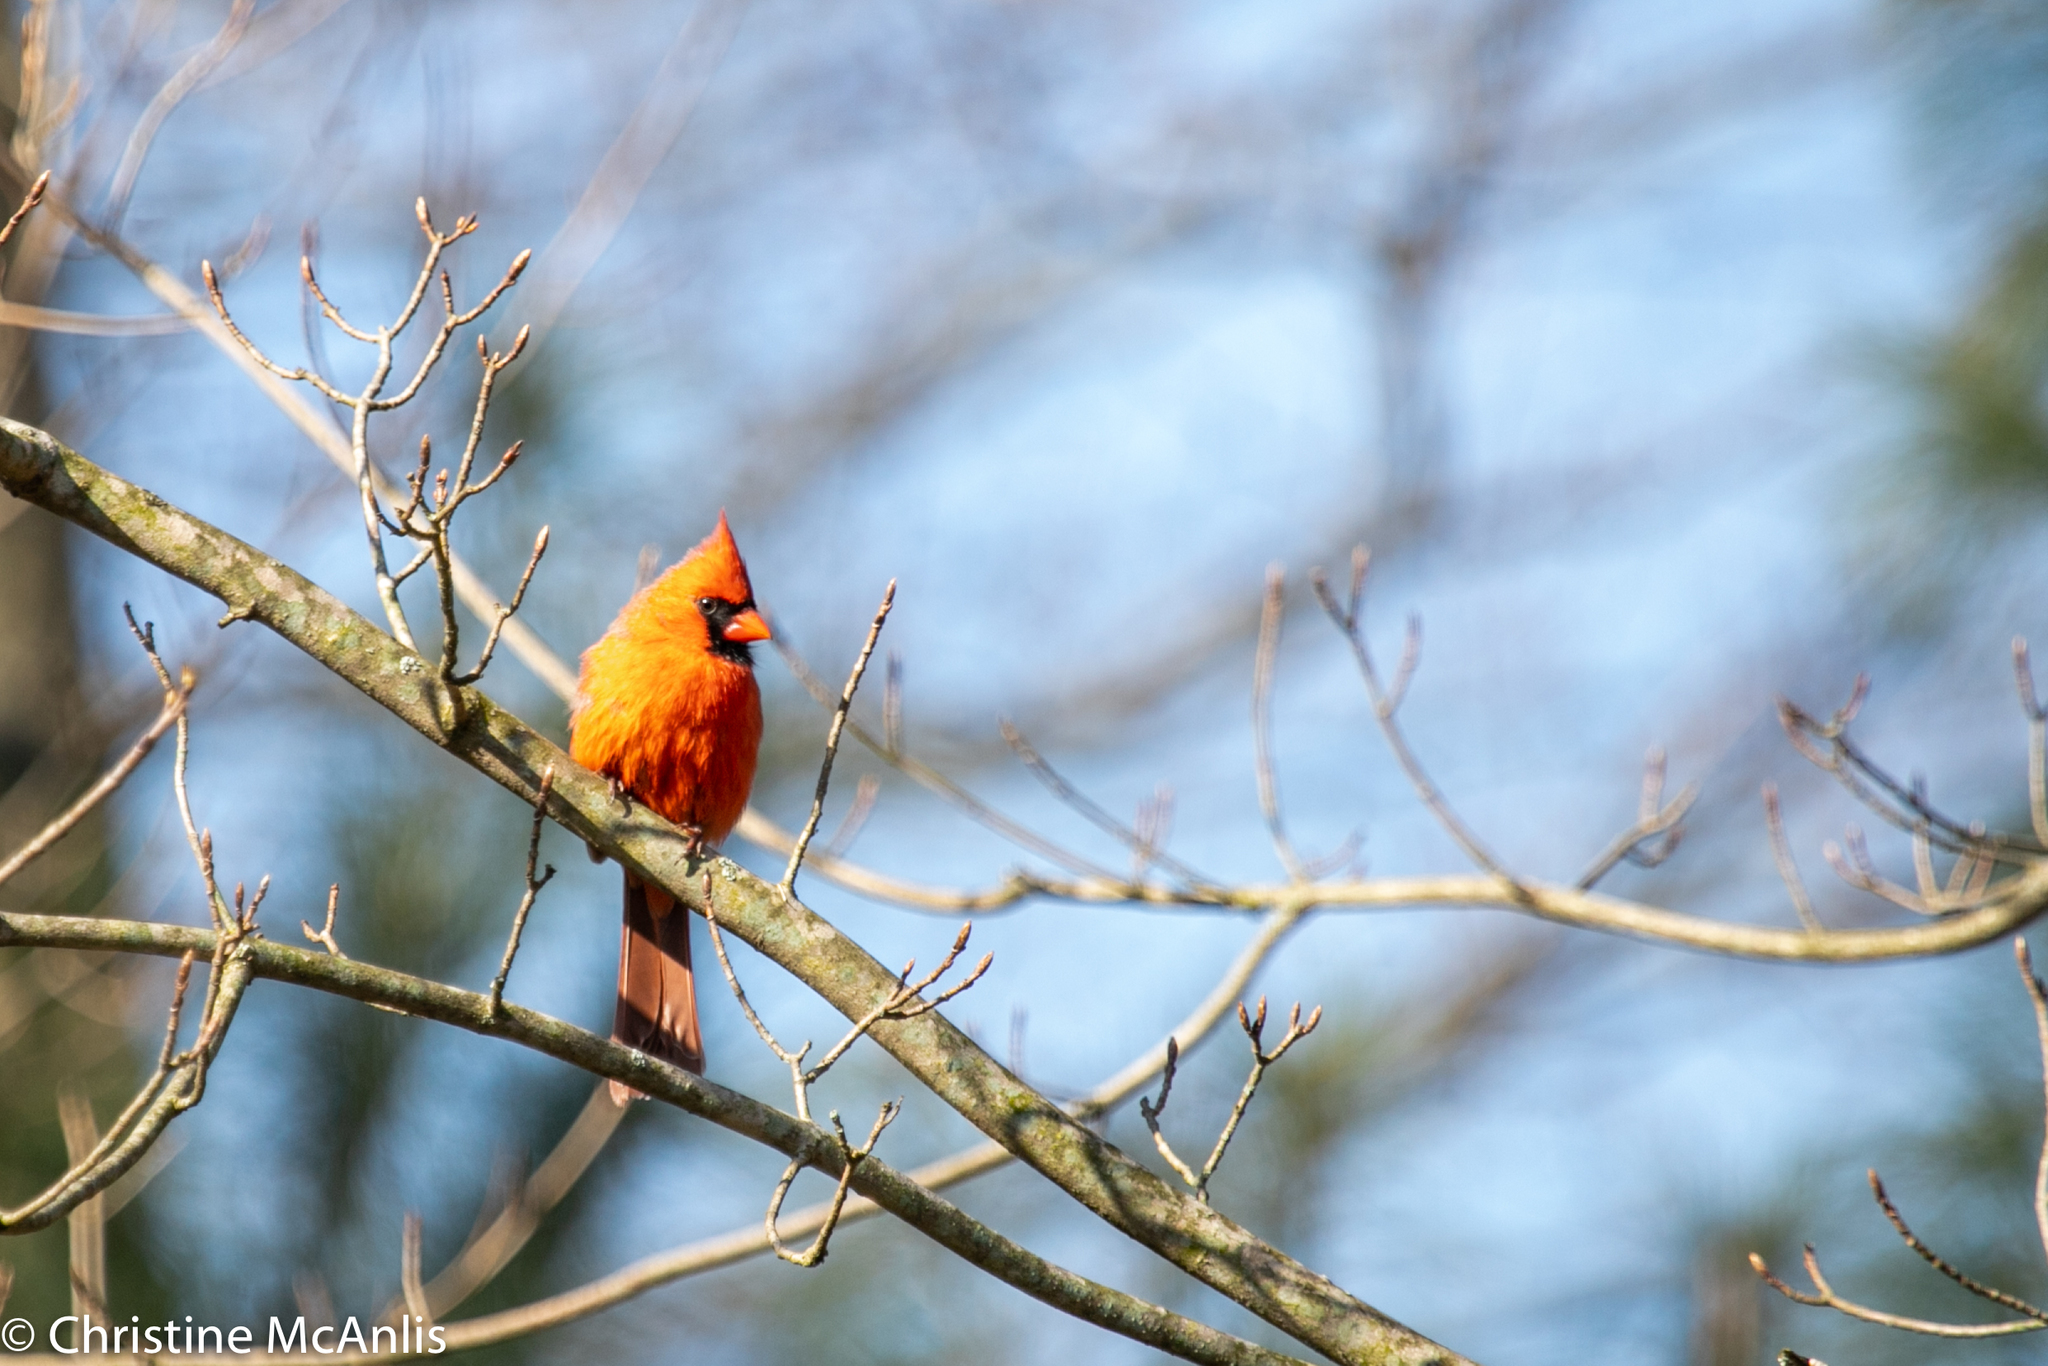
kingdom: Animalia
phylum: Chordata
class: Aves
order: Passeriformes
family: Cardinalidae
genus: Cardinalis
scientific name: Cardinalis cardinalis
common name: Northern cardinal
